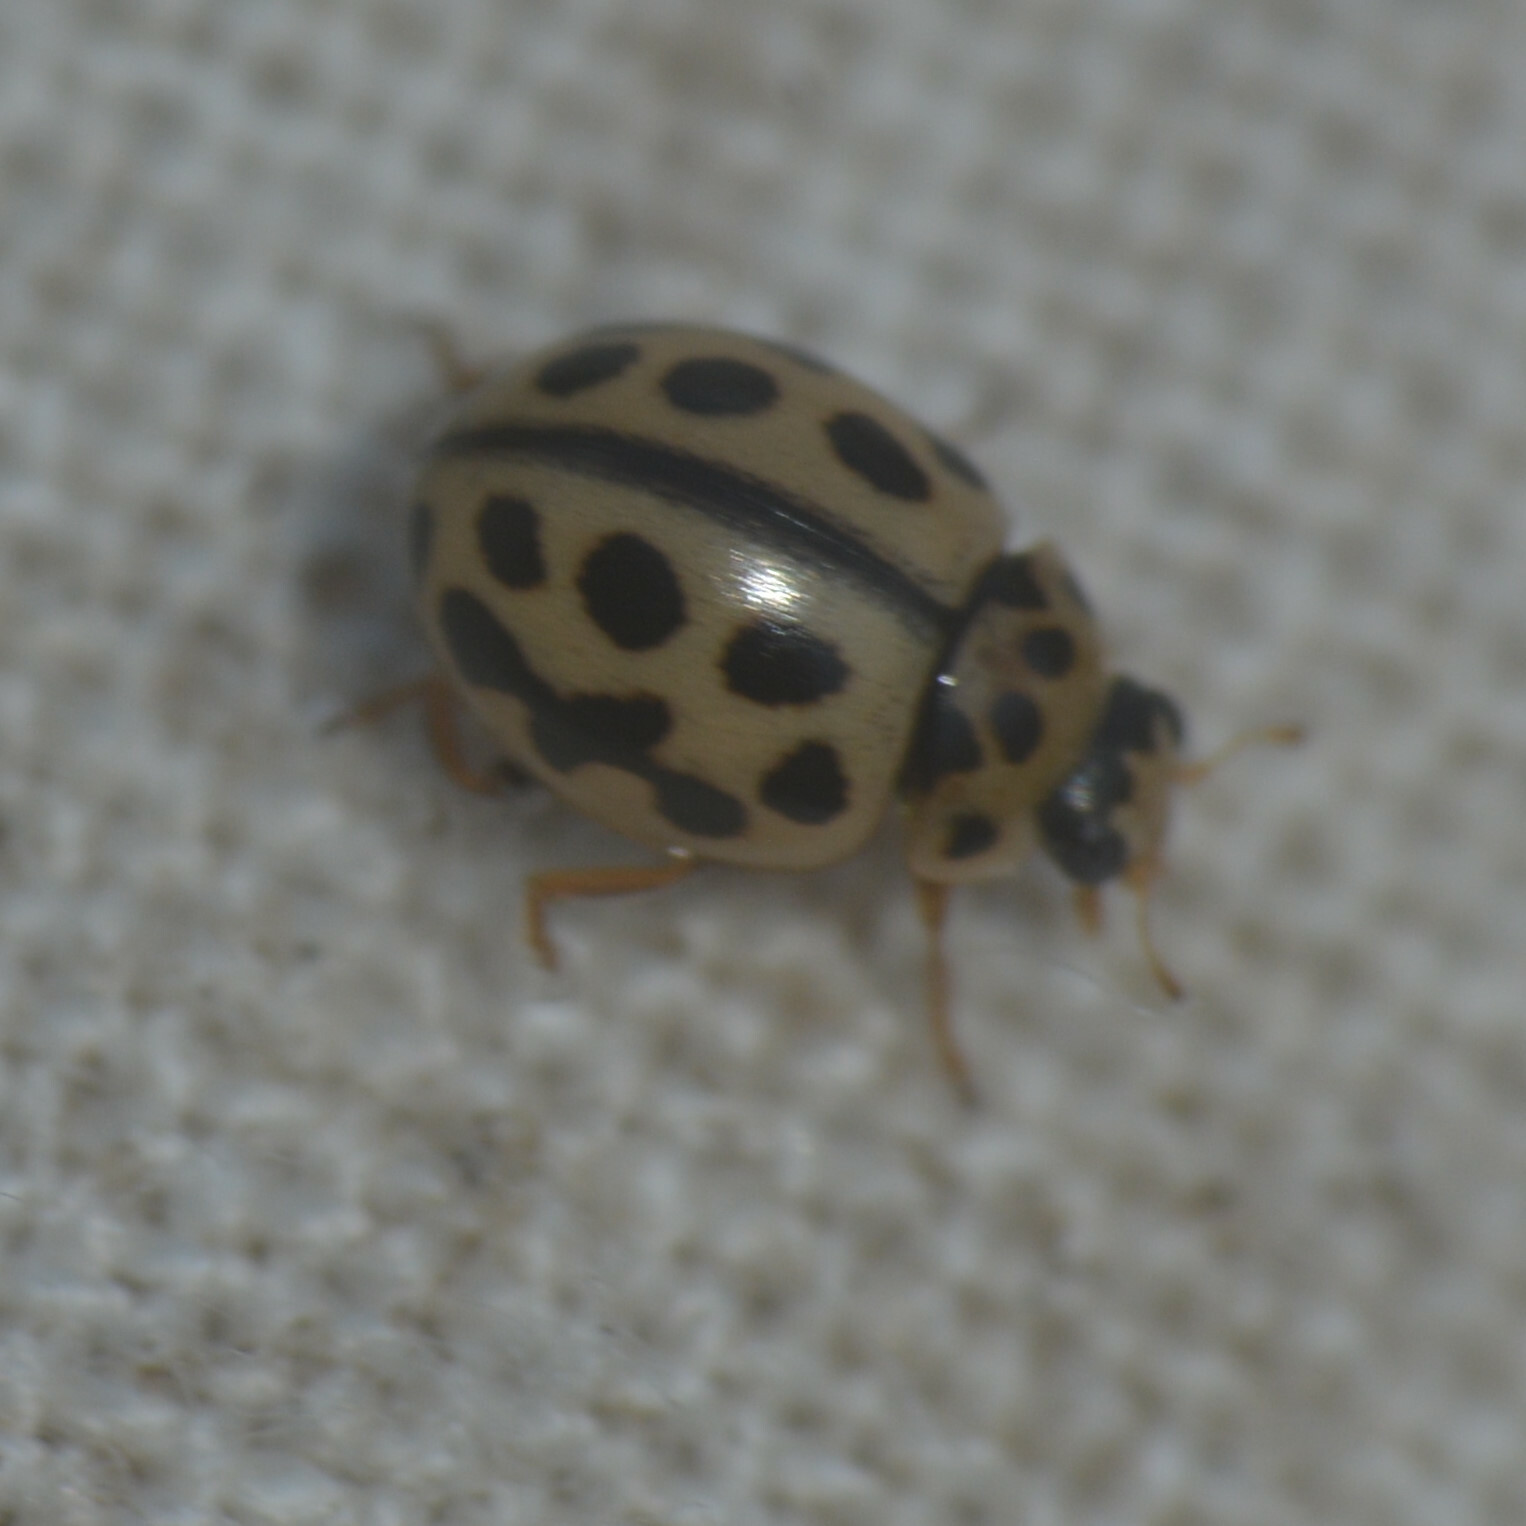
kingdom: Animalia
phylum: Arthropoda
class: Insecta
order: Coleoptera
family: Coccinellidae
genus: Tytthaspis
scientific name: Tytthaspis sedecimpunctata
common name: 16-spot ladybird
